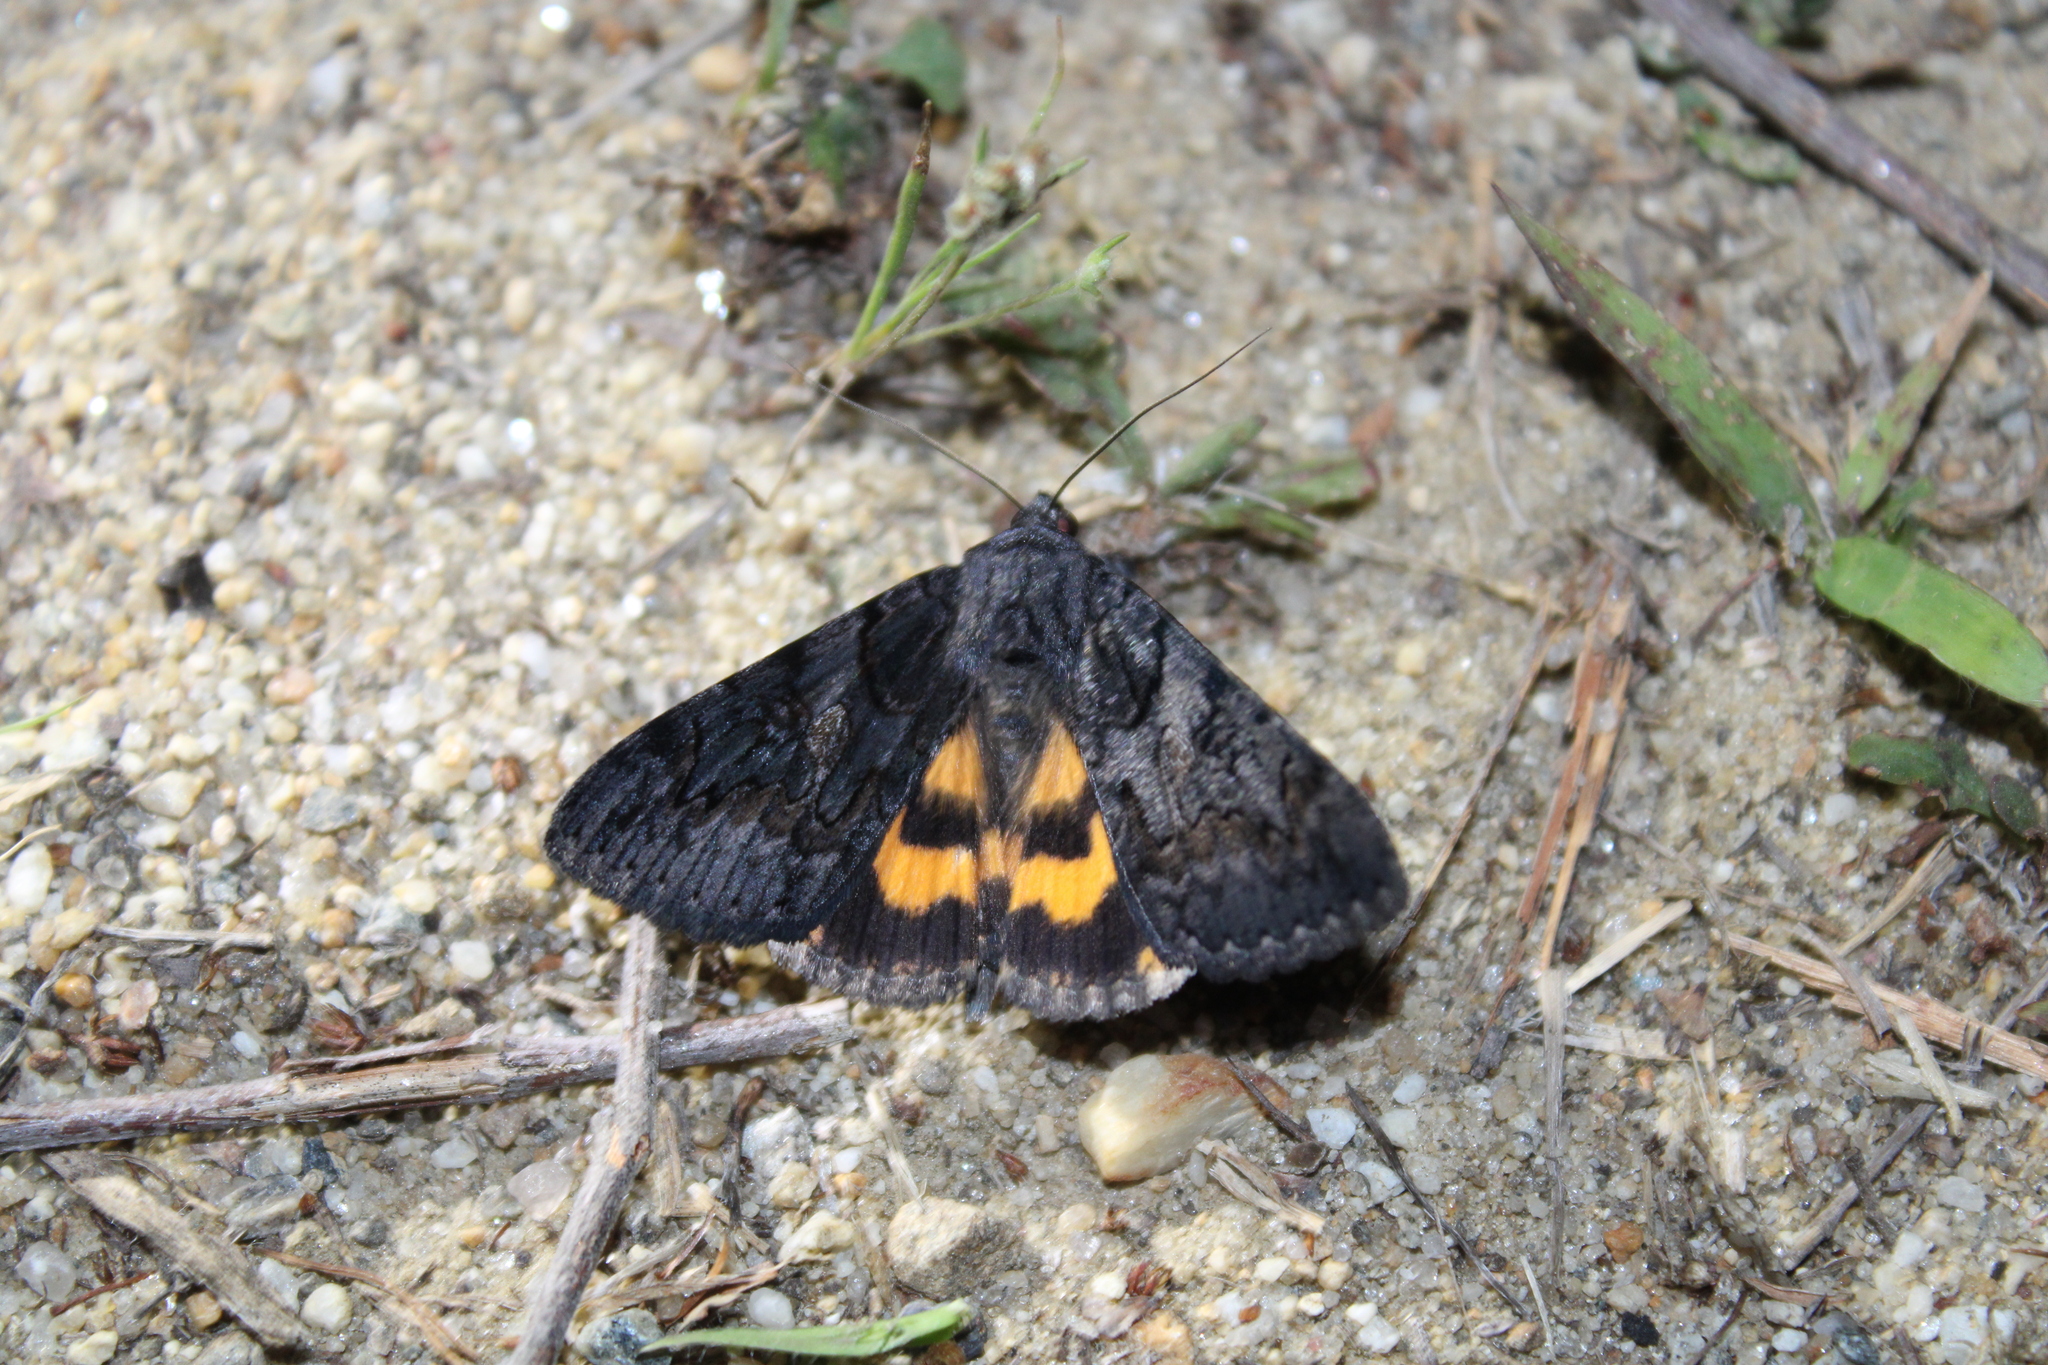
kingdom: Animalia
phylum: Arthropoda
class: Insecta
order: Lepidoptera
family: Erebidae
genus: Catocala
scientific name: Catocala antinympha
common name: Sweetfern underwing
